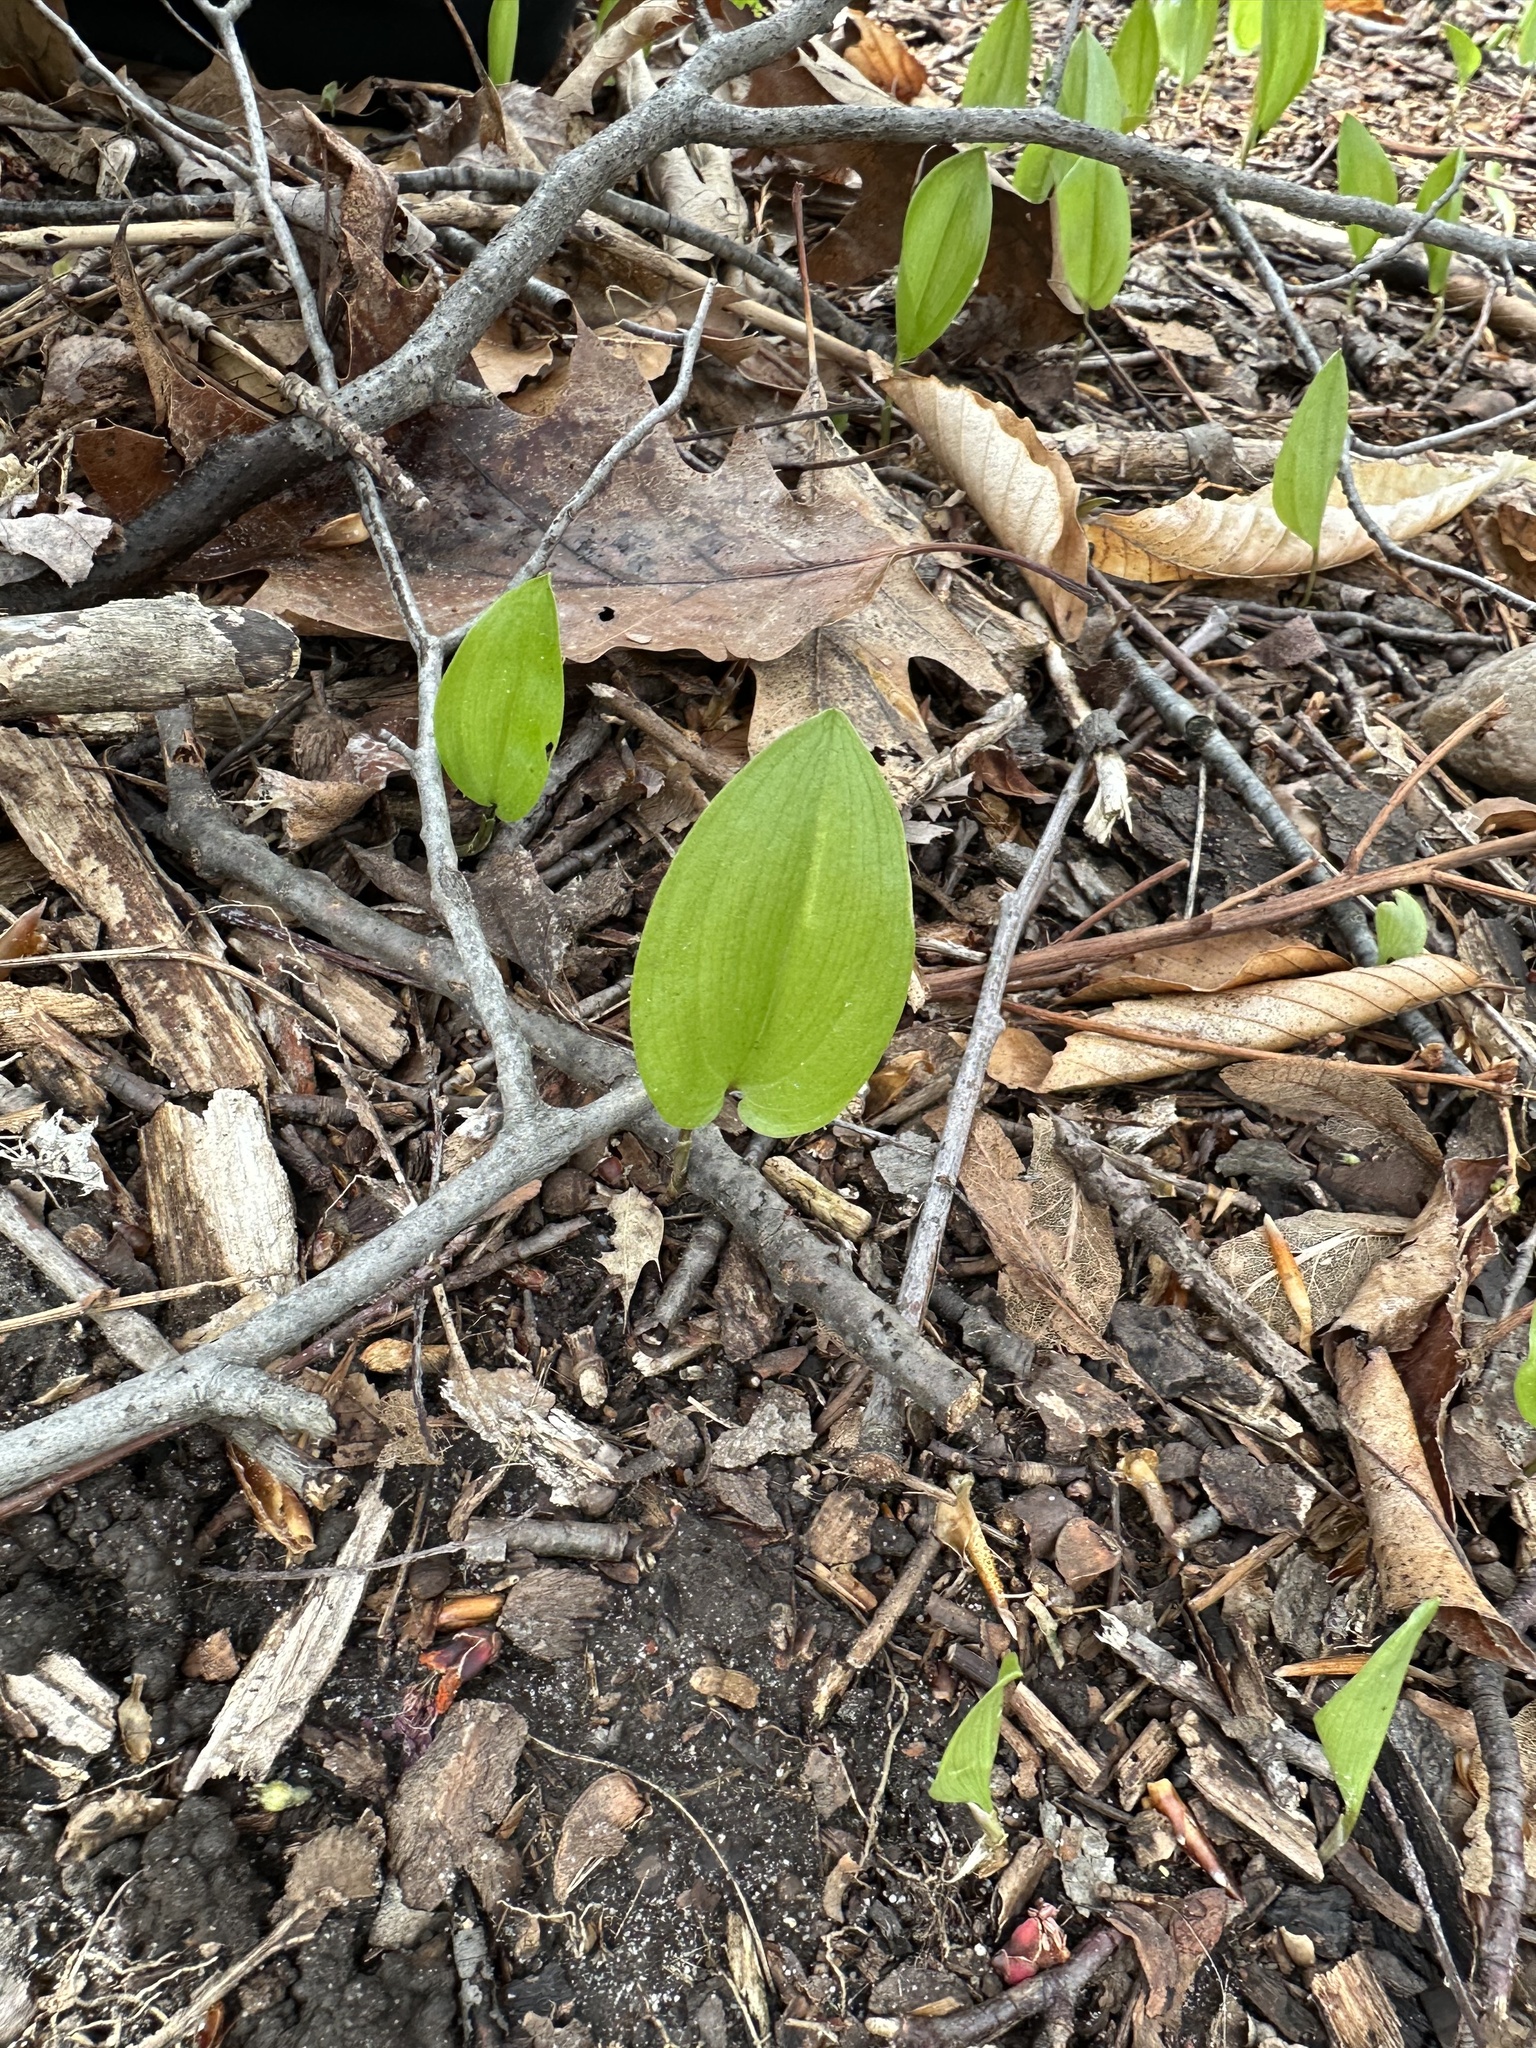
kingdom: Plantae
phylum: Tracheophyta
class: Liliopsida
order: Asparagales
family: Asparagaceae
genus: Maianthemum
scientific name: Maianthemum canadense
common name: False lily-of-the-valley
